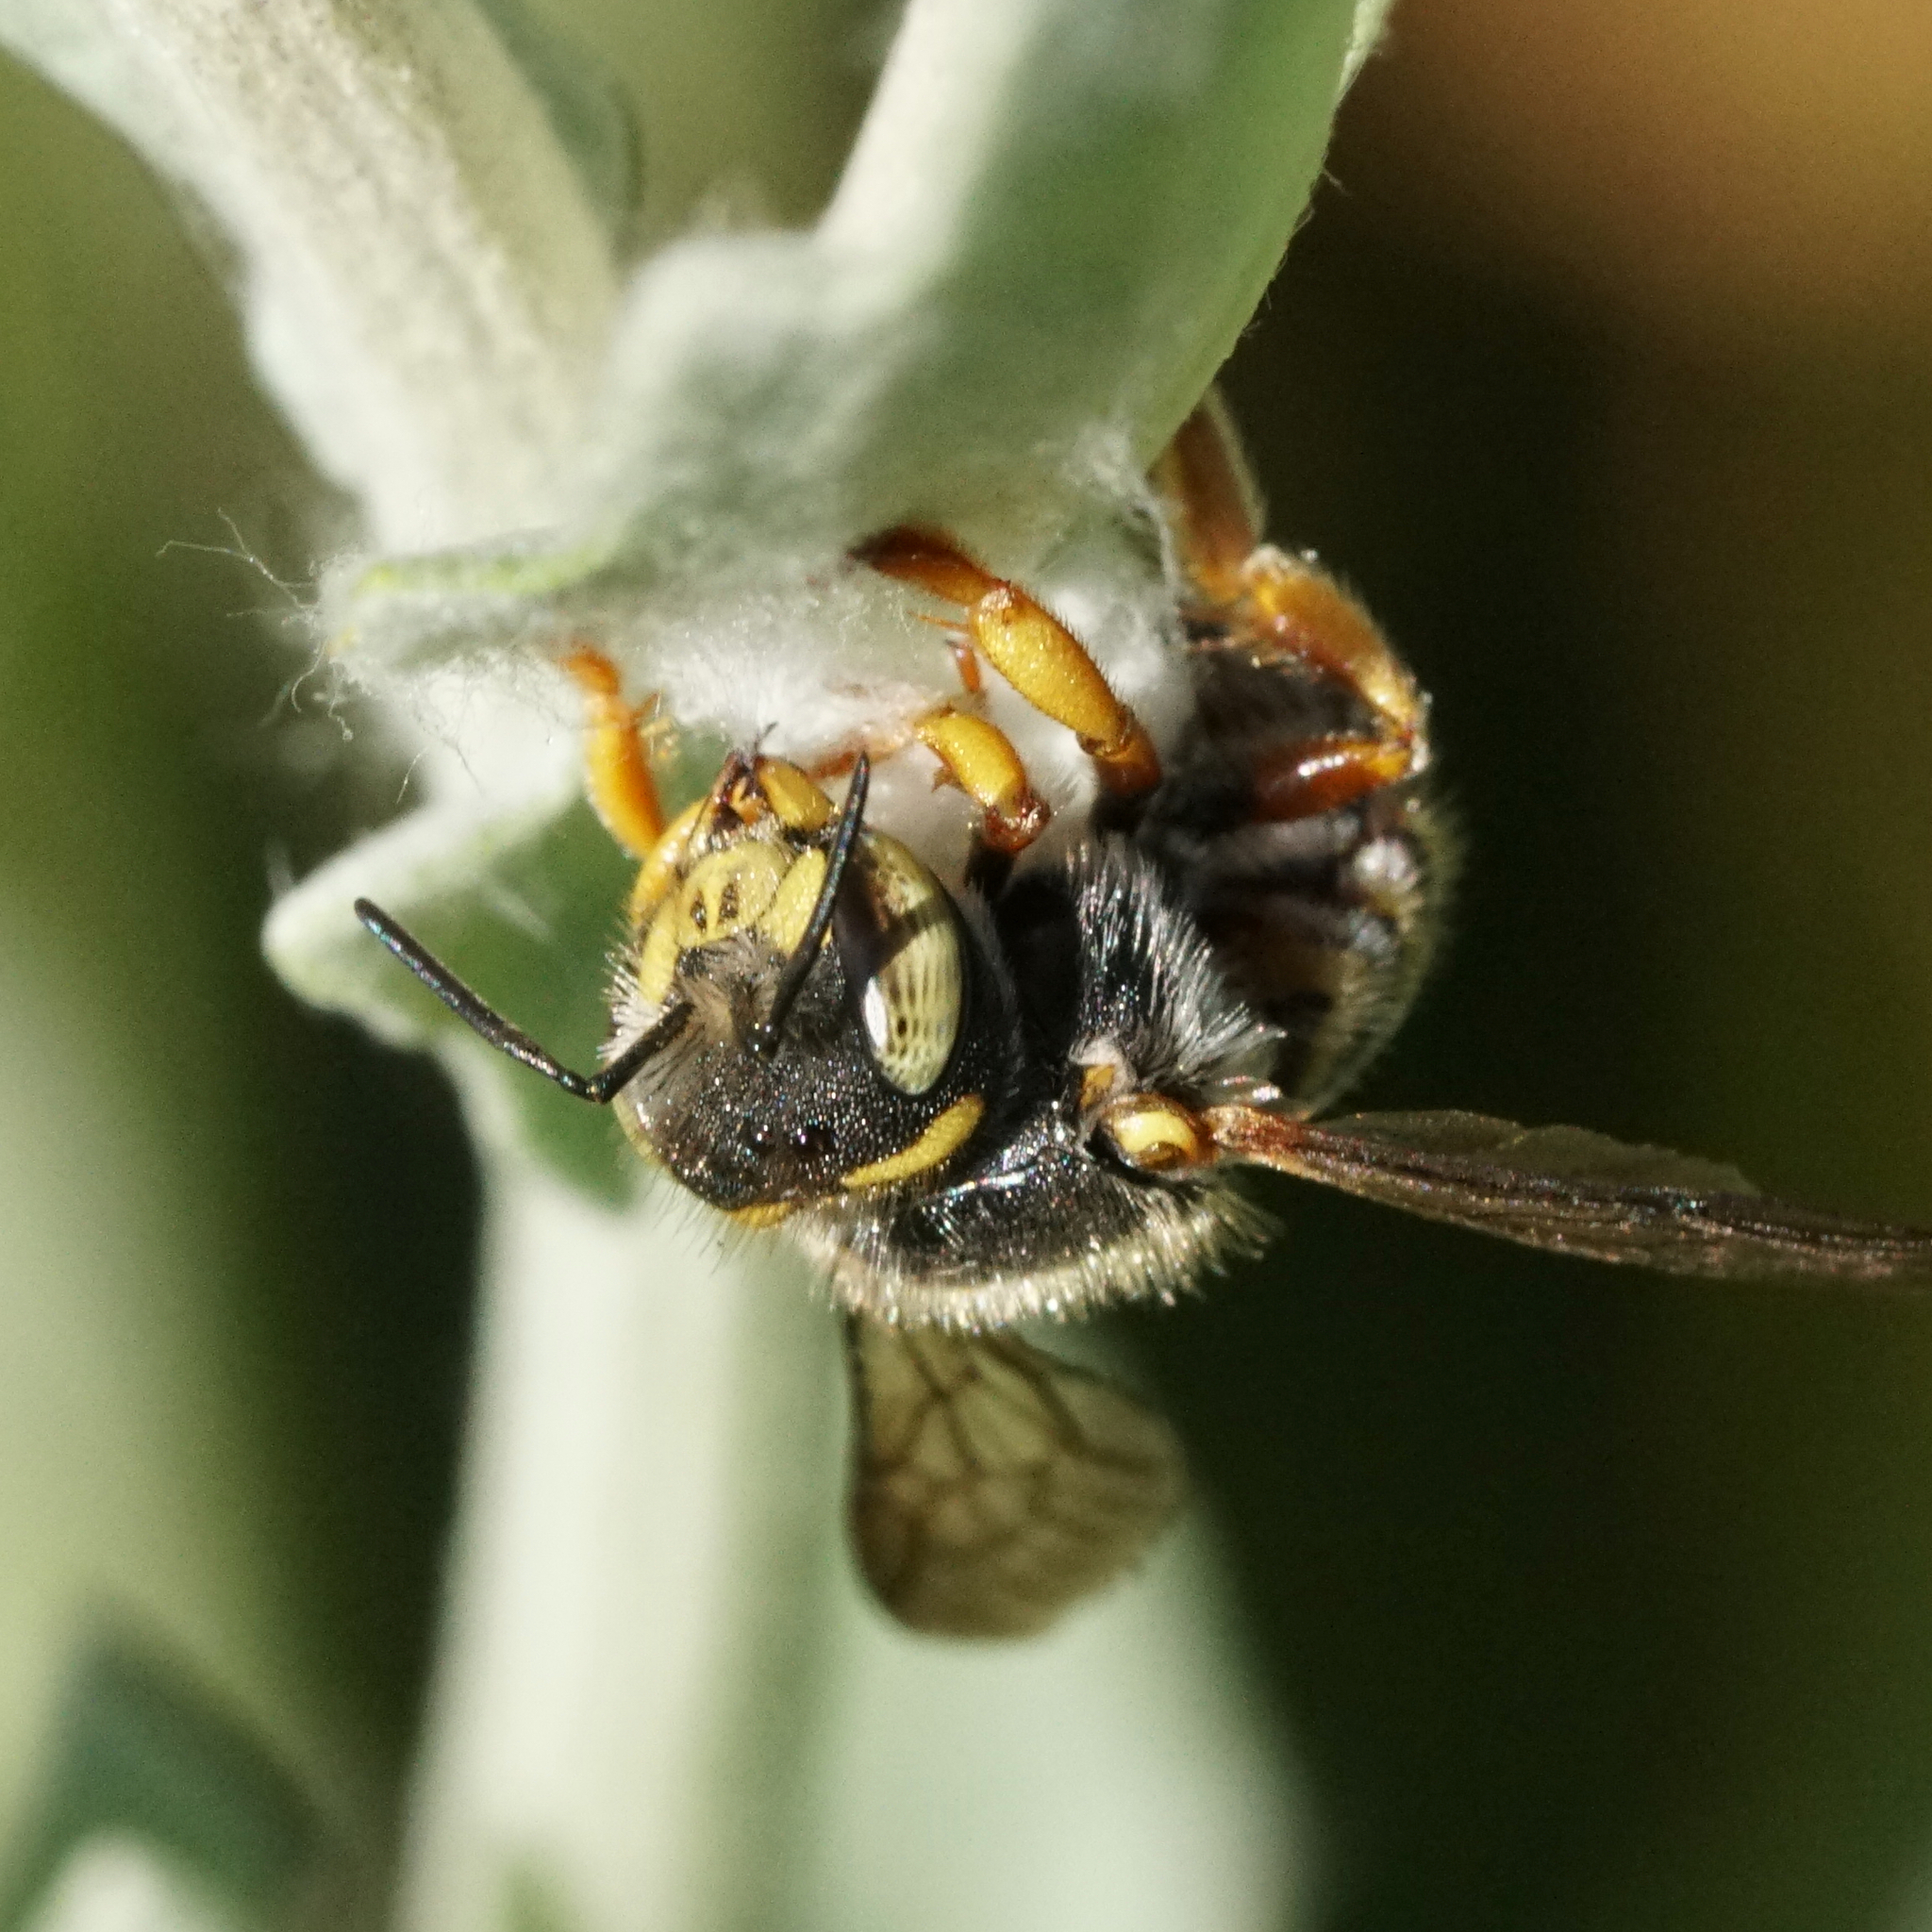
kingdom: Animalia
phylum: Arthropoda
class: Insecta
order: Hymenoptera
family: Megachilidae
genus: Anthidium
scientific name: Anthidium oblongatum
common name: Oblong wool carder bee
